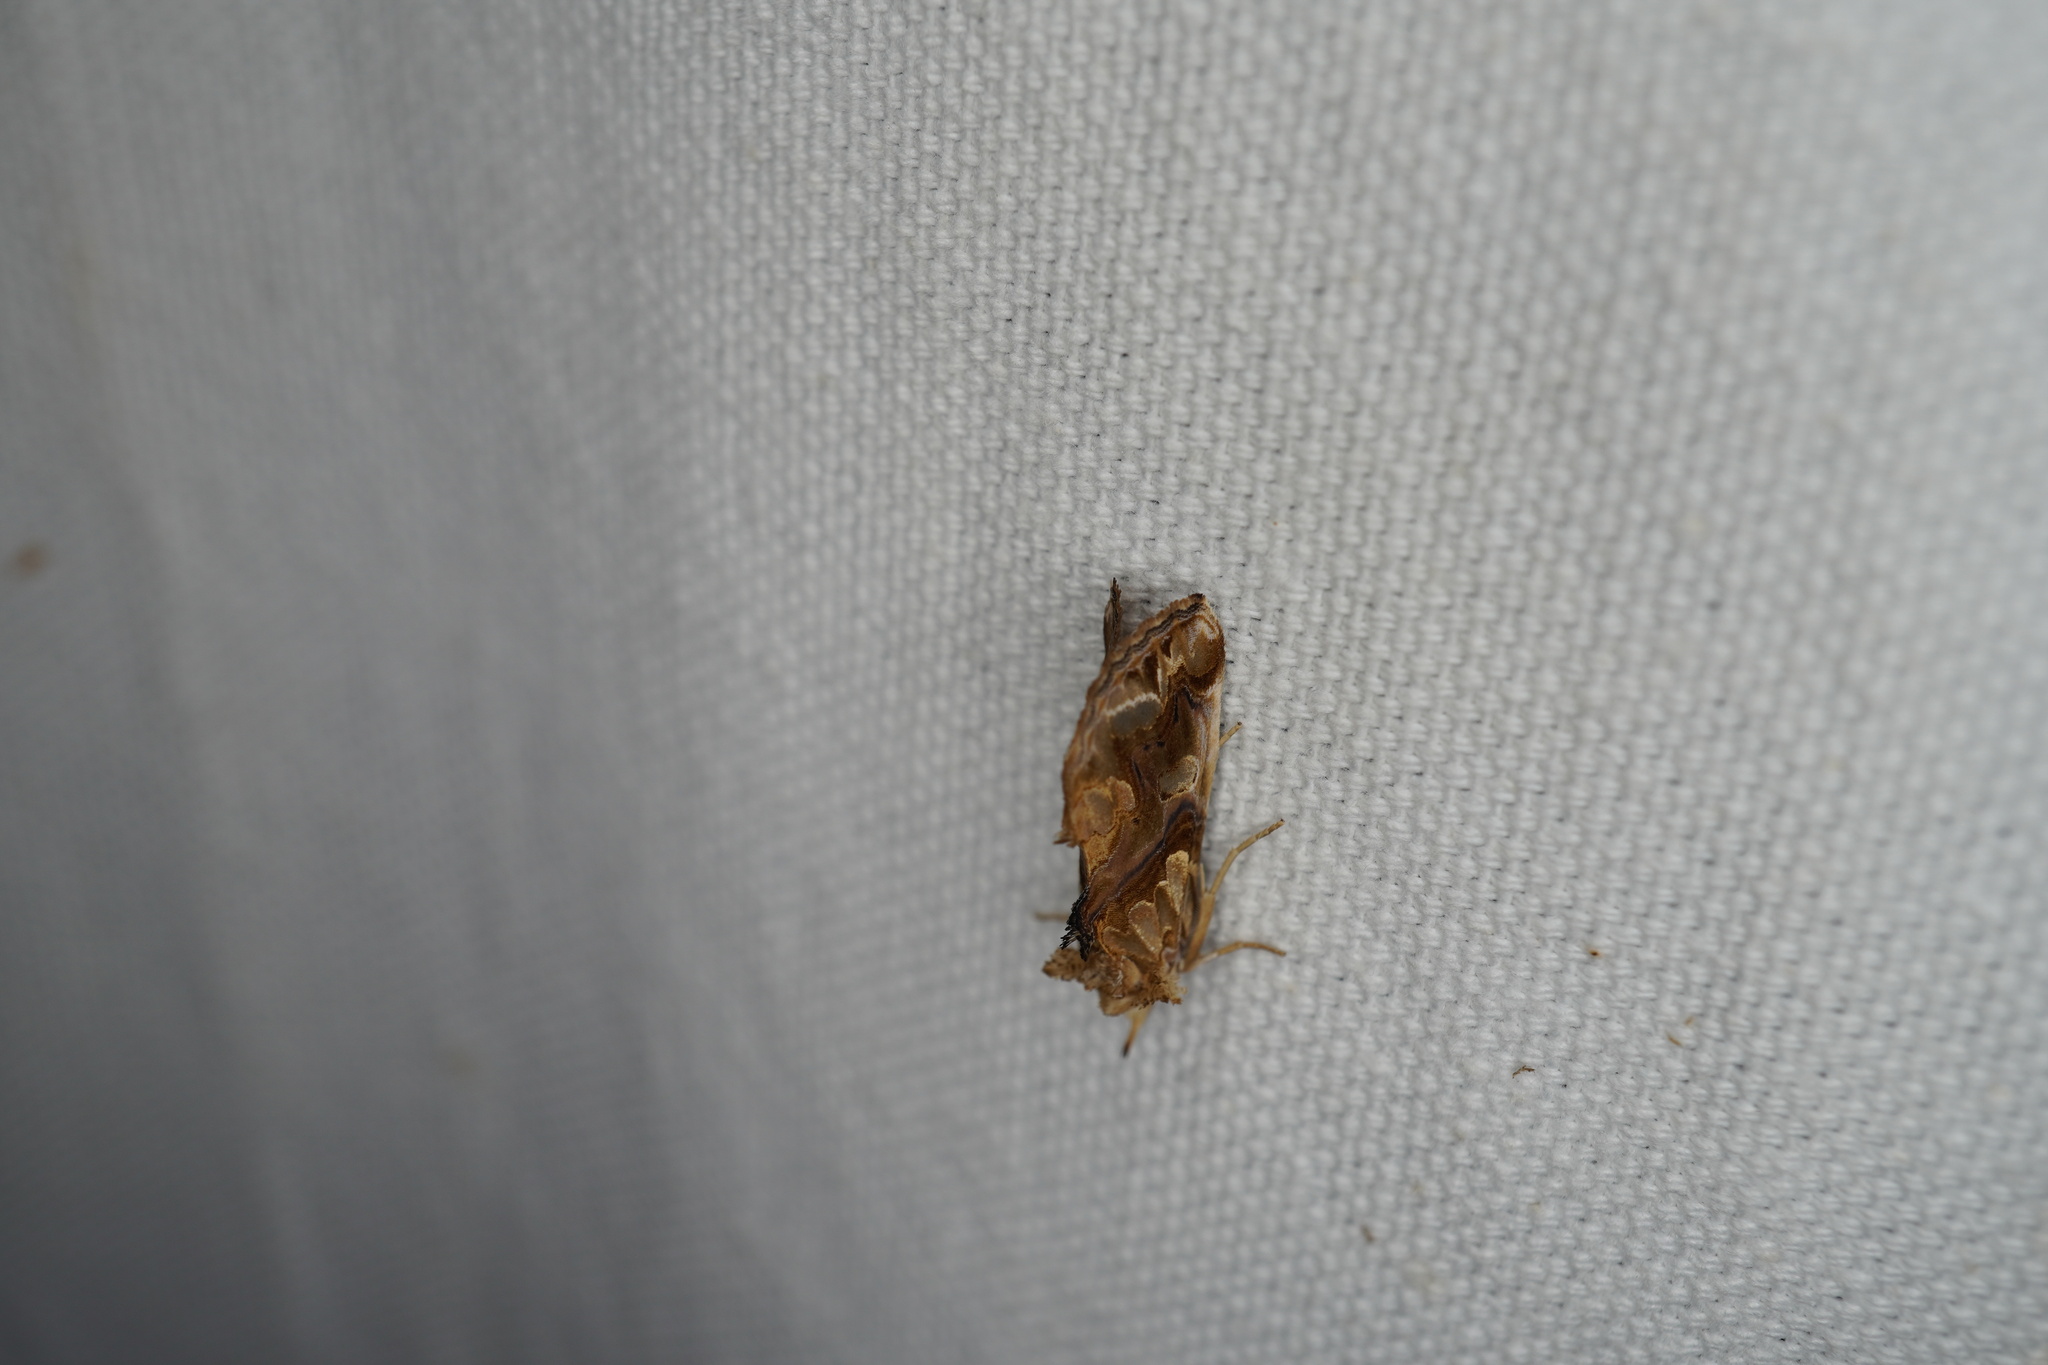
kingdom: Animalia
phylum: Arthropoda
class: Insecta
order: Lepidoptera
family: Erebidae
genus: Plusiodonta
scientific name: Plusiodonta compressipalpis
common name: Moonseed moth
